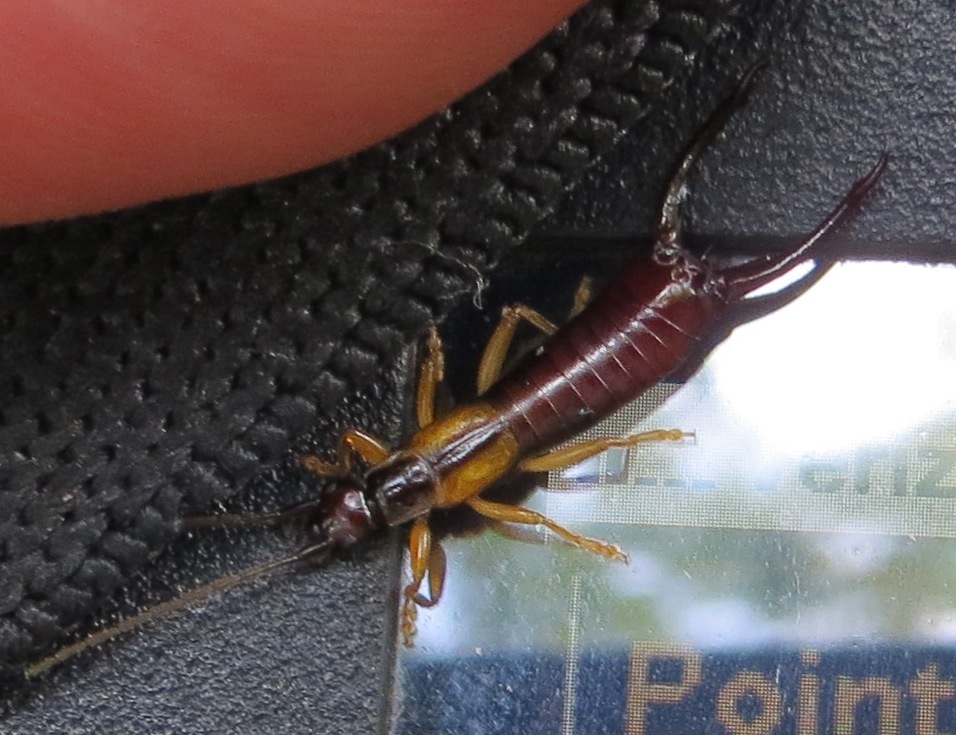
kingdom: Animalia
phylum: Arthropoda
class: Insecta
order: Dermaptera
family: Forficulidae
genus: Doru
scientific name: Doru aculeatum
